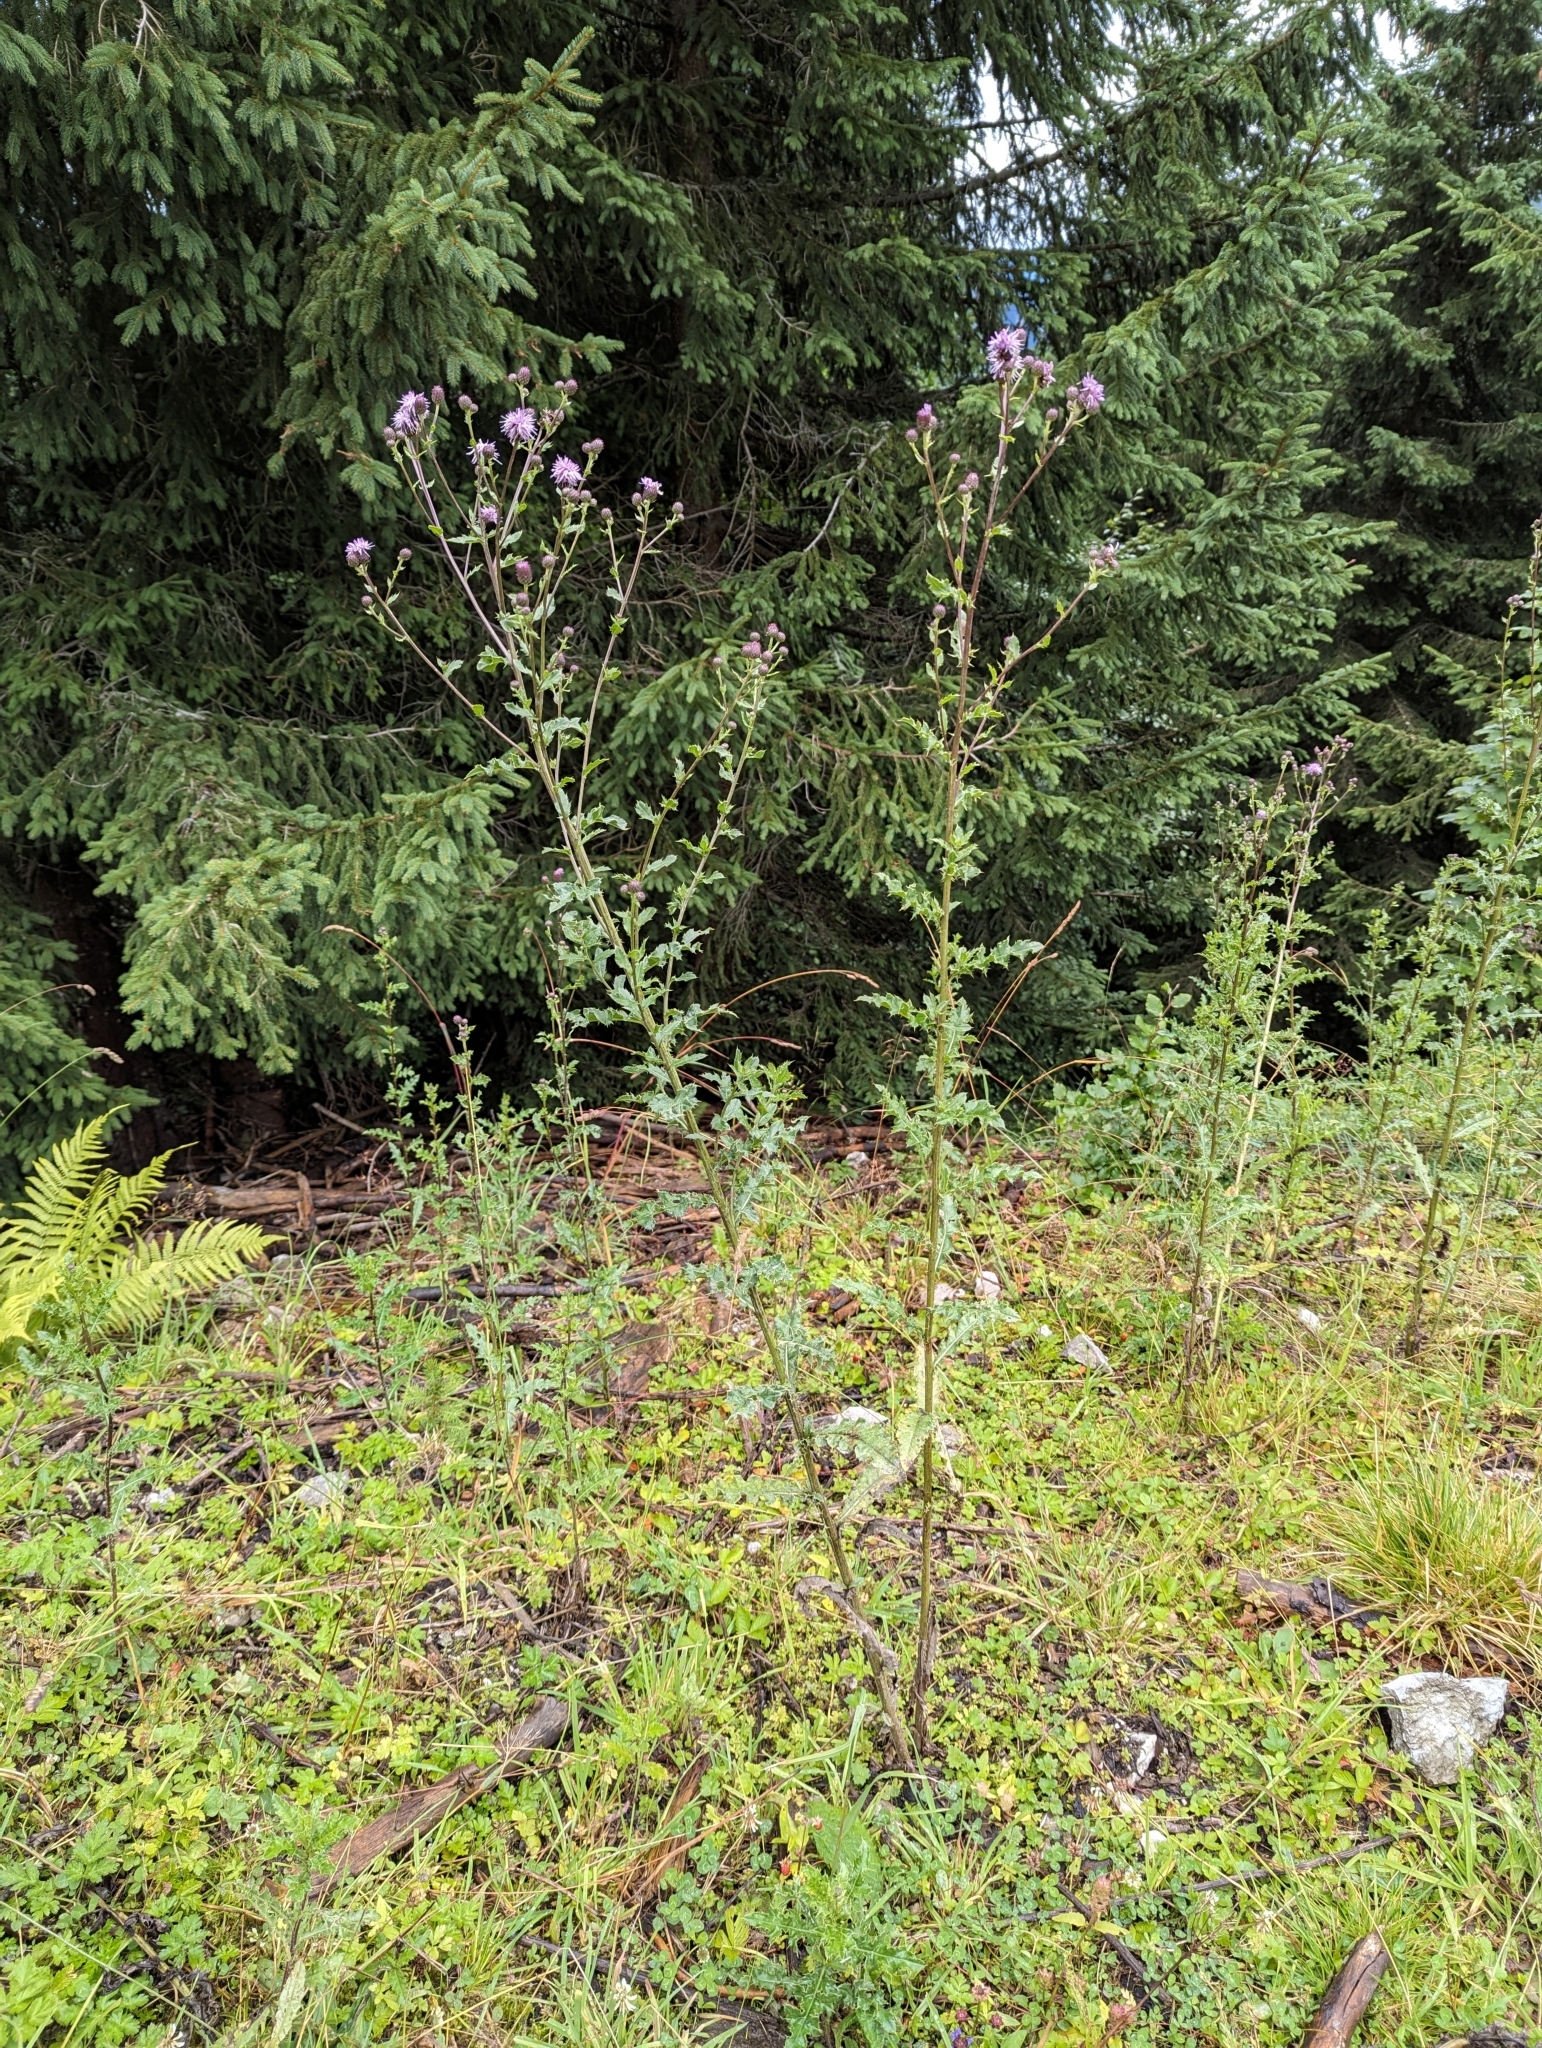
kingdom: Plantae
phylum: Tracheophyta
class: Magnoliopsida
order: Asterales
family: Asteraceae
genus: Cirsium
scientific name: Cirsium arvense
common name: Creeping thistle
